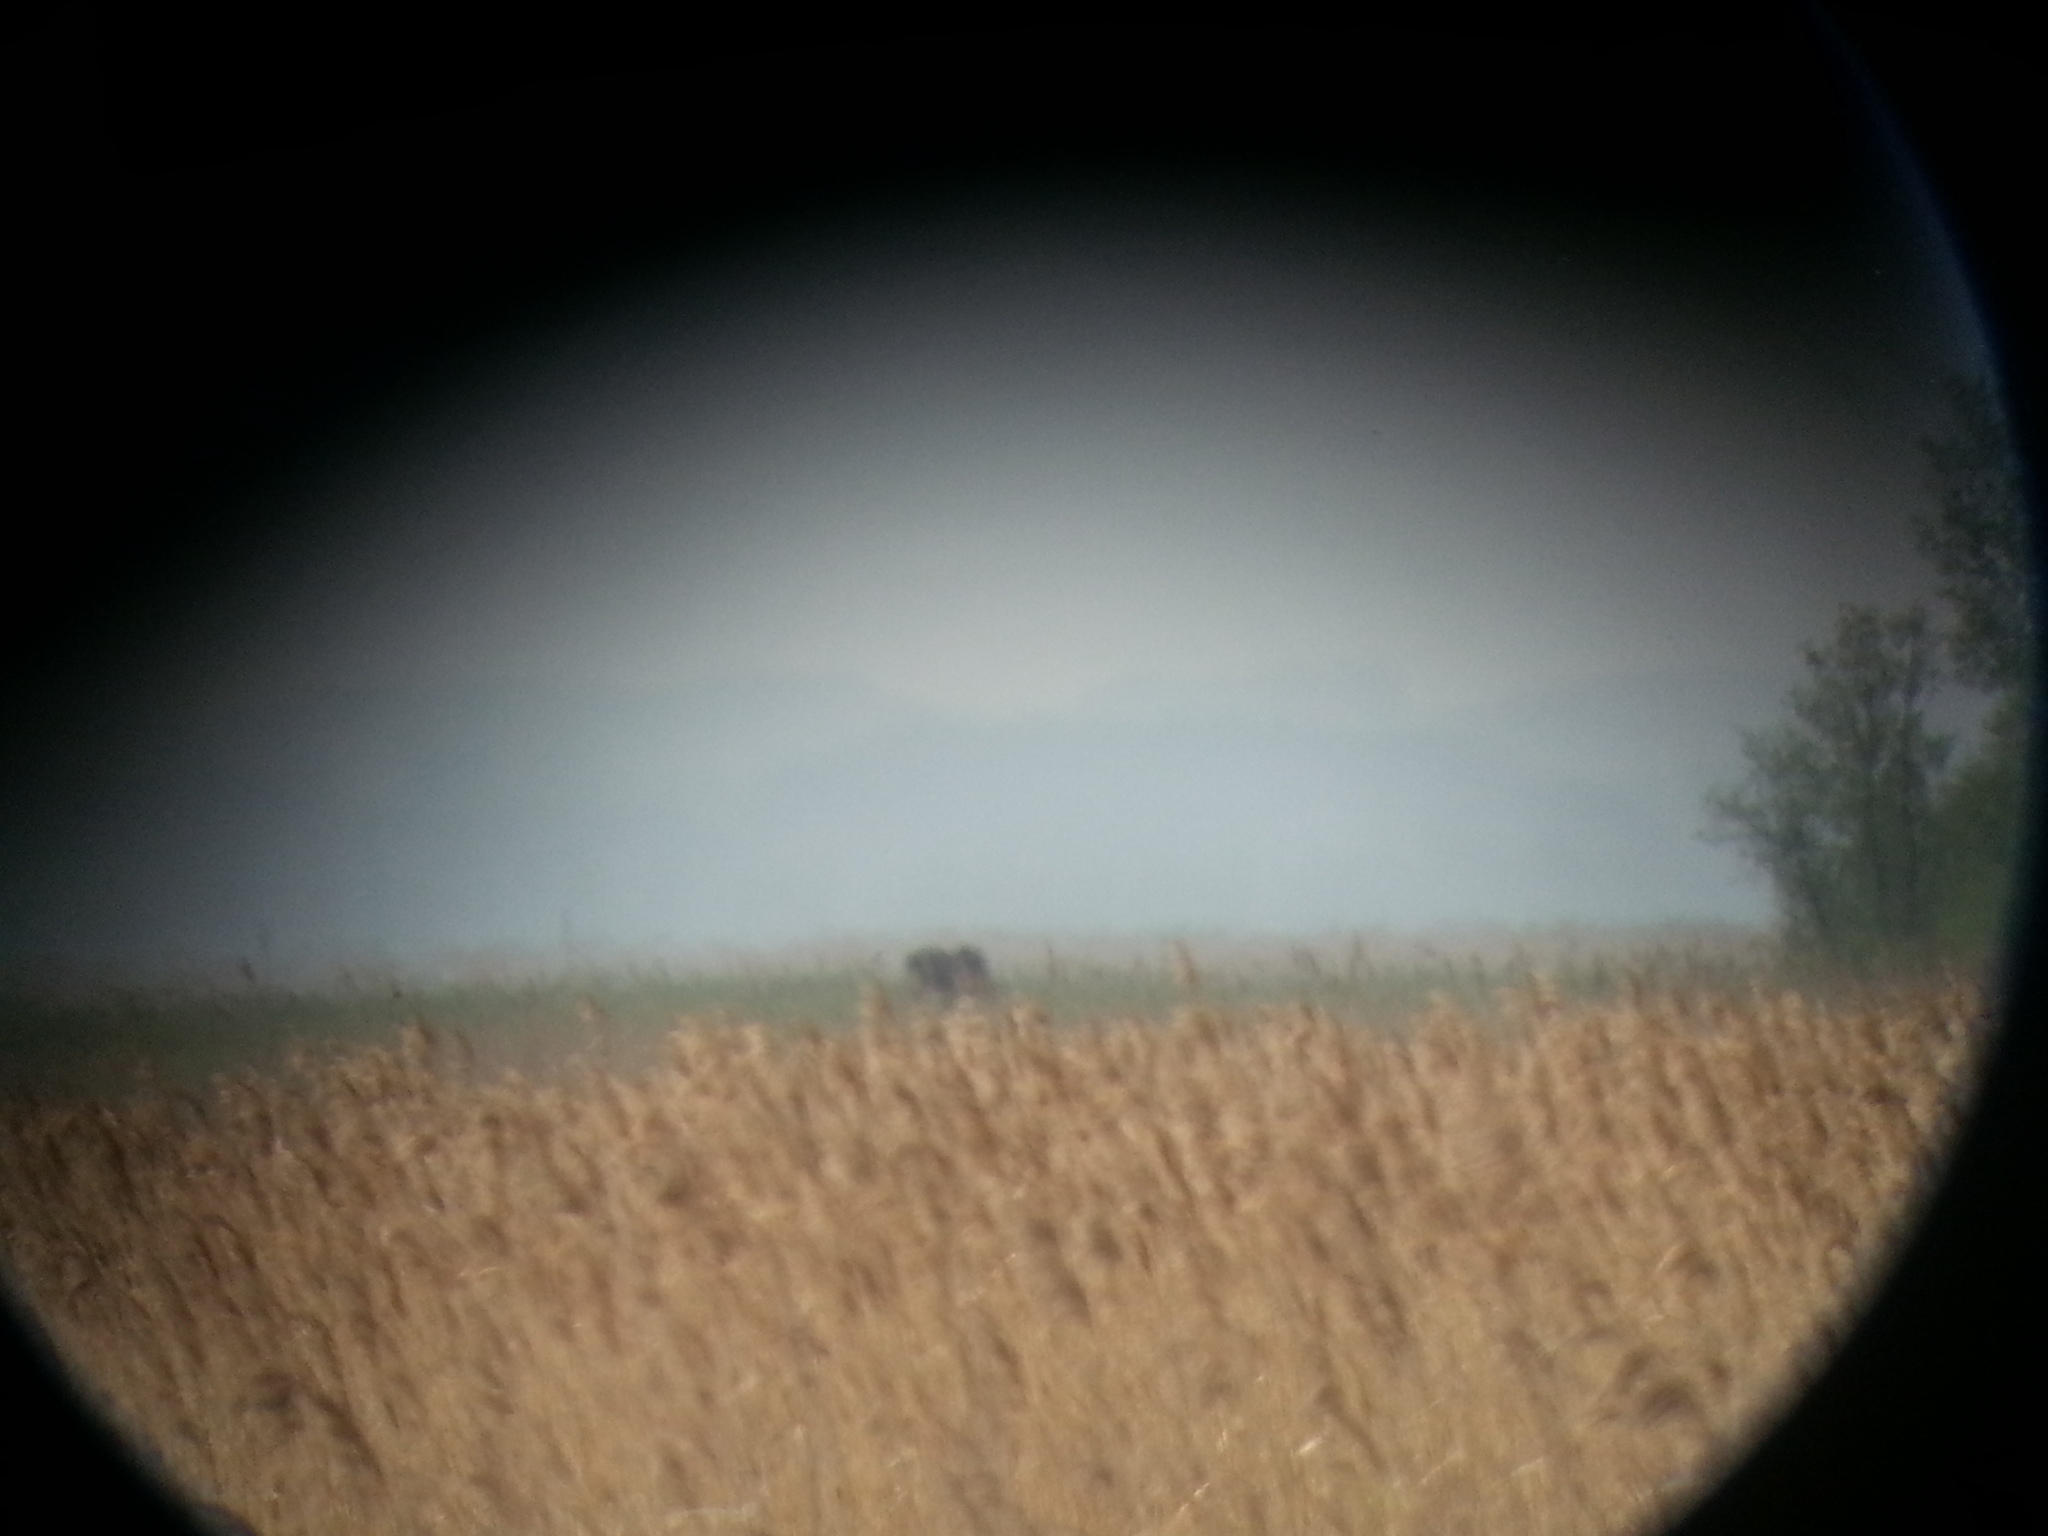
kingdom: Animalia
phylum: Chordata
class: Mammalia
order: Artiodactyla
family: Cervidae
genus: Alces
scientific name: Alces alces
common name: Moose
